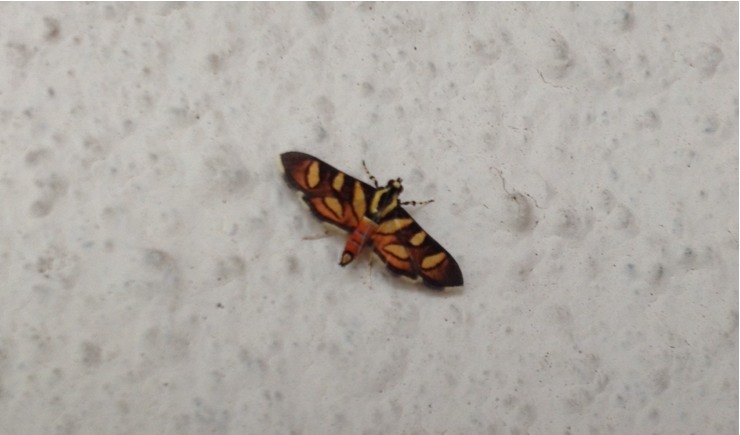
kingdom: Animalia
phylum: Arthropoda
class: Insecta
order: Lepidoptera
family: Crambidae
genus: Syngamia
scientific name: Syngamia florella
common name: Orange-spotted flower moth
